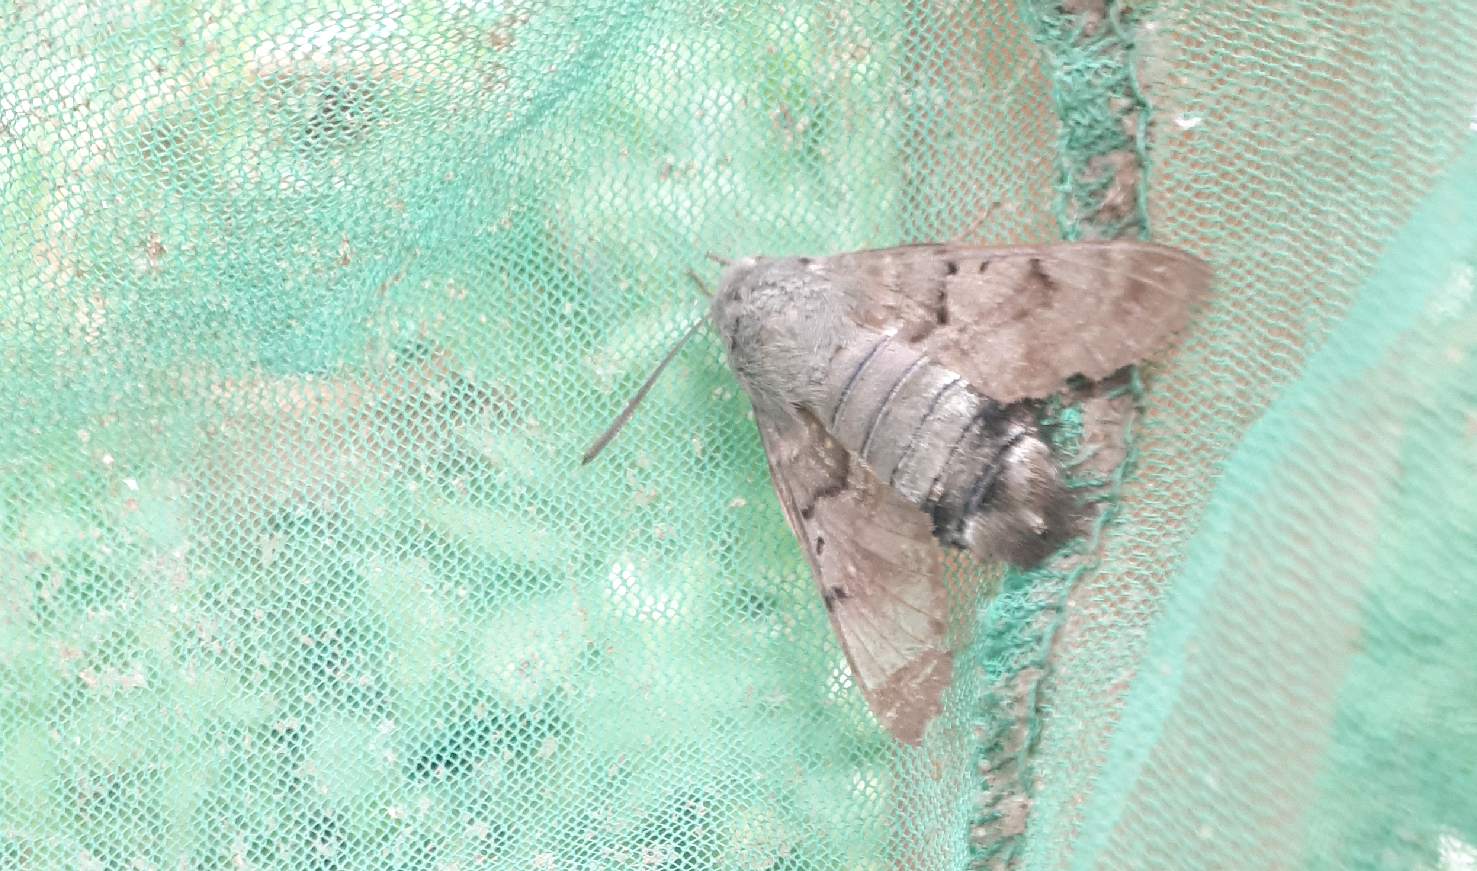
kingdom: Animalia
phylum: Arthropoda
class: Insecta
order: Lepidoptera
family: Sphingidae
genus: Macroglossum
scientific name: Macroglossum stellatarum
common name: Humming-bird hawk-moth
